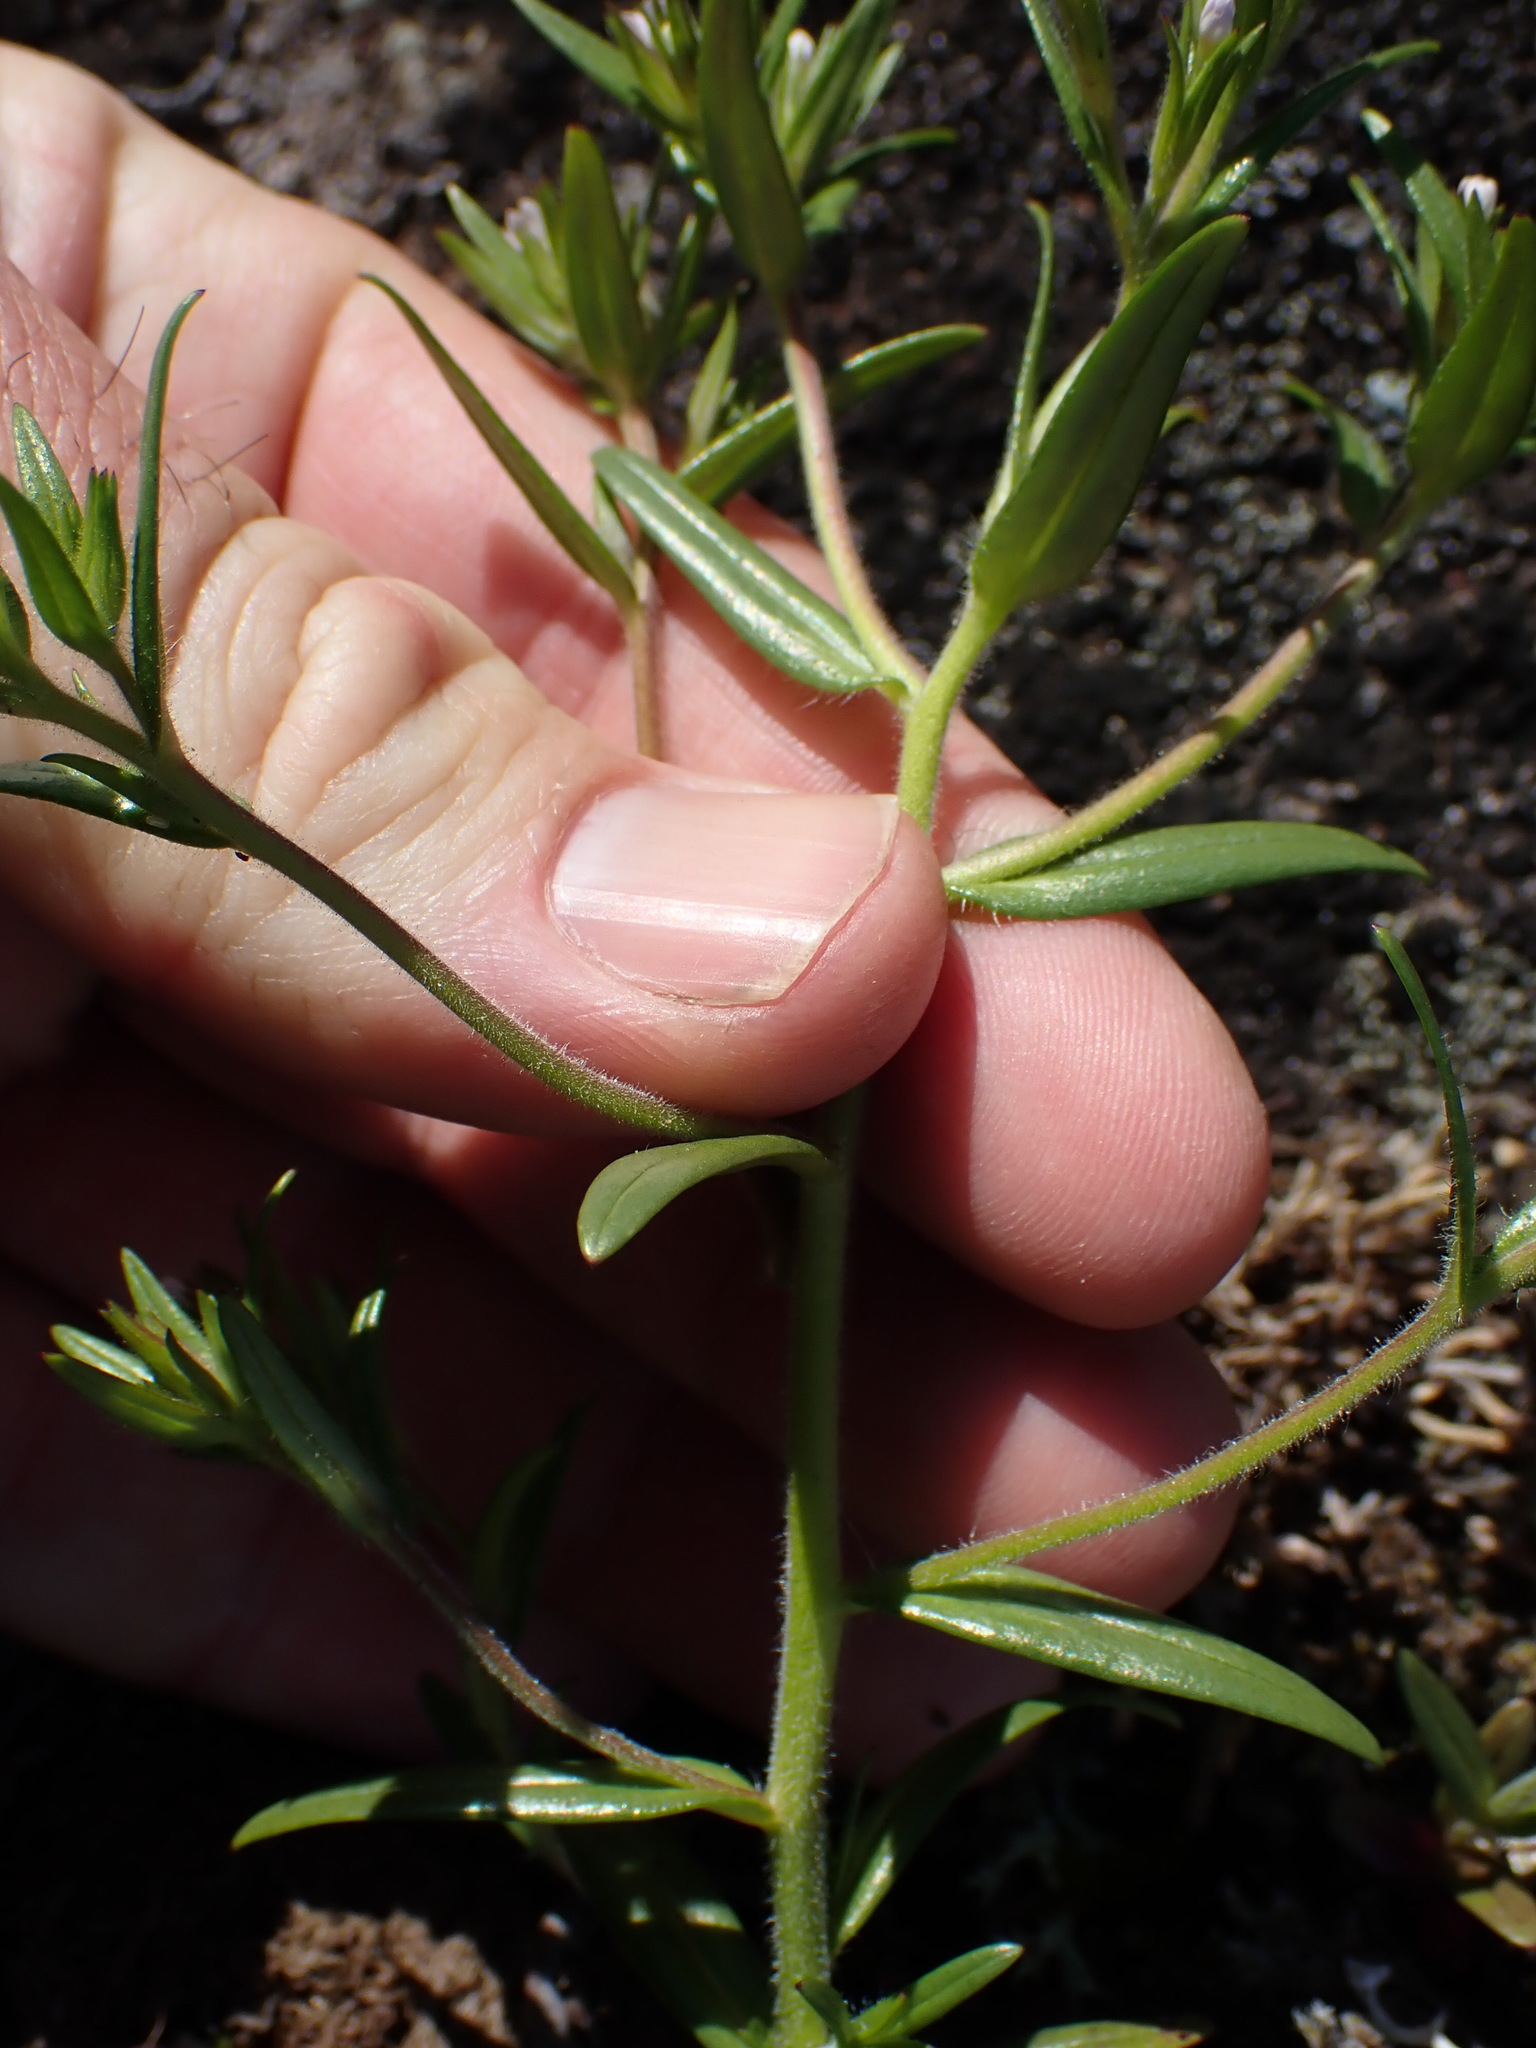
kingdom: Plantae
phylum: Tracheophyta
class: Magnoliopsida
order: Ericales
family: Polemoniaceae
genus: Phlox
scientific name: Phlox gracilis
